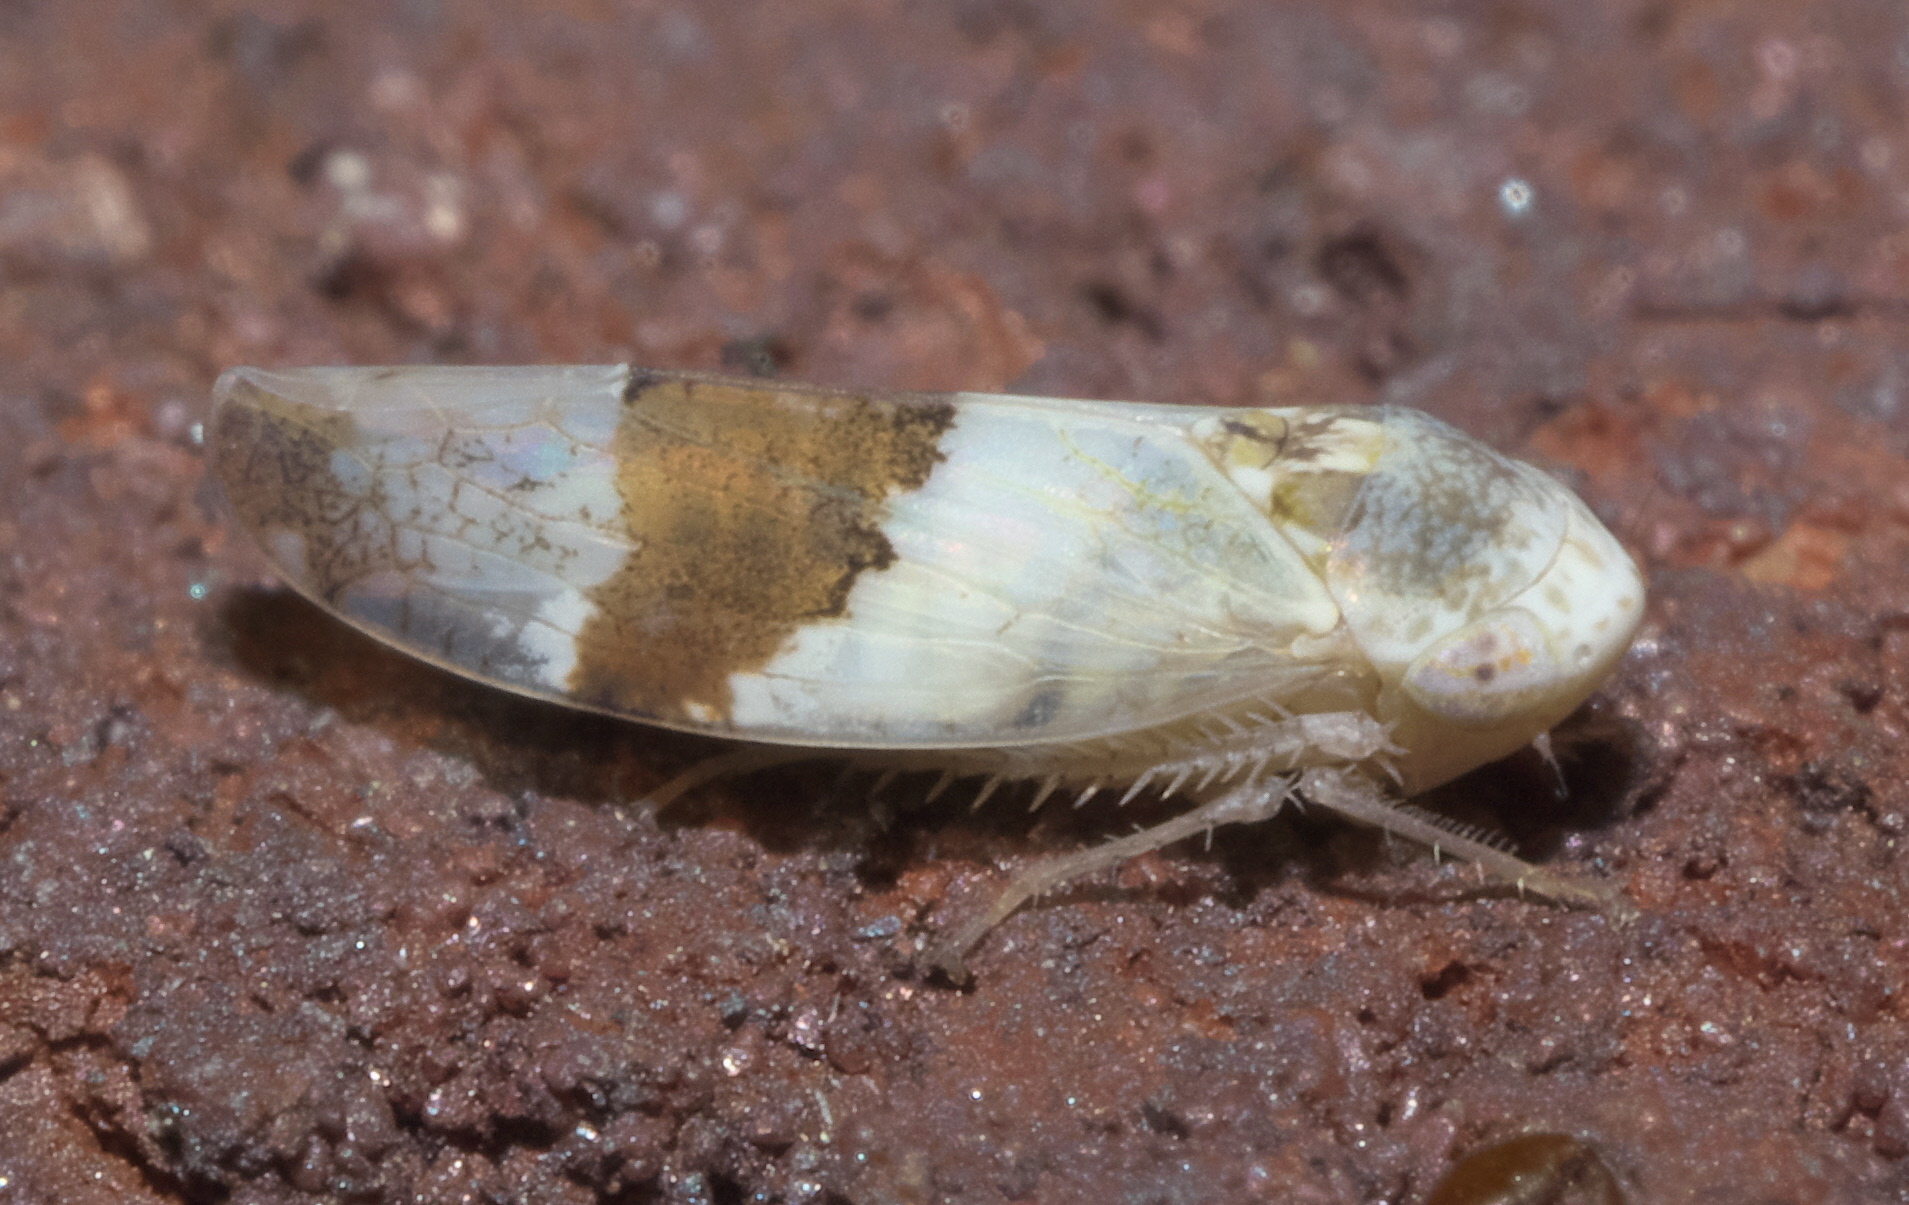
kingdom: Animalia
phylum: Arthropoda
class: Insecta
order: Hemiptera
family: Cicadellidae
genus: Norvellina
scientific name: Norvellina seminuda
